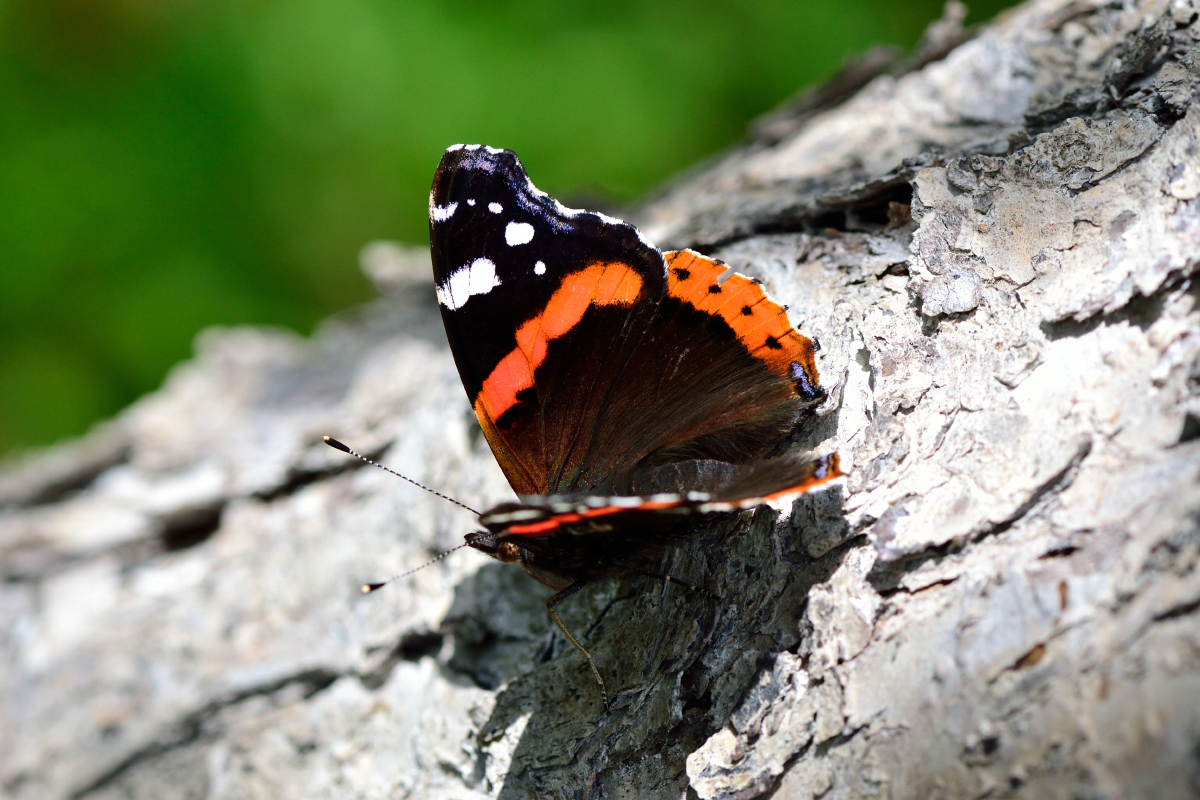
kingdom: Animalia
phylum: Arthropoda
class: Insecta
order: Lepidoptera
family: Nymphalidae
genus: Vanessa
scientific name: Vanessa atalanta
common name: Red admiral
